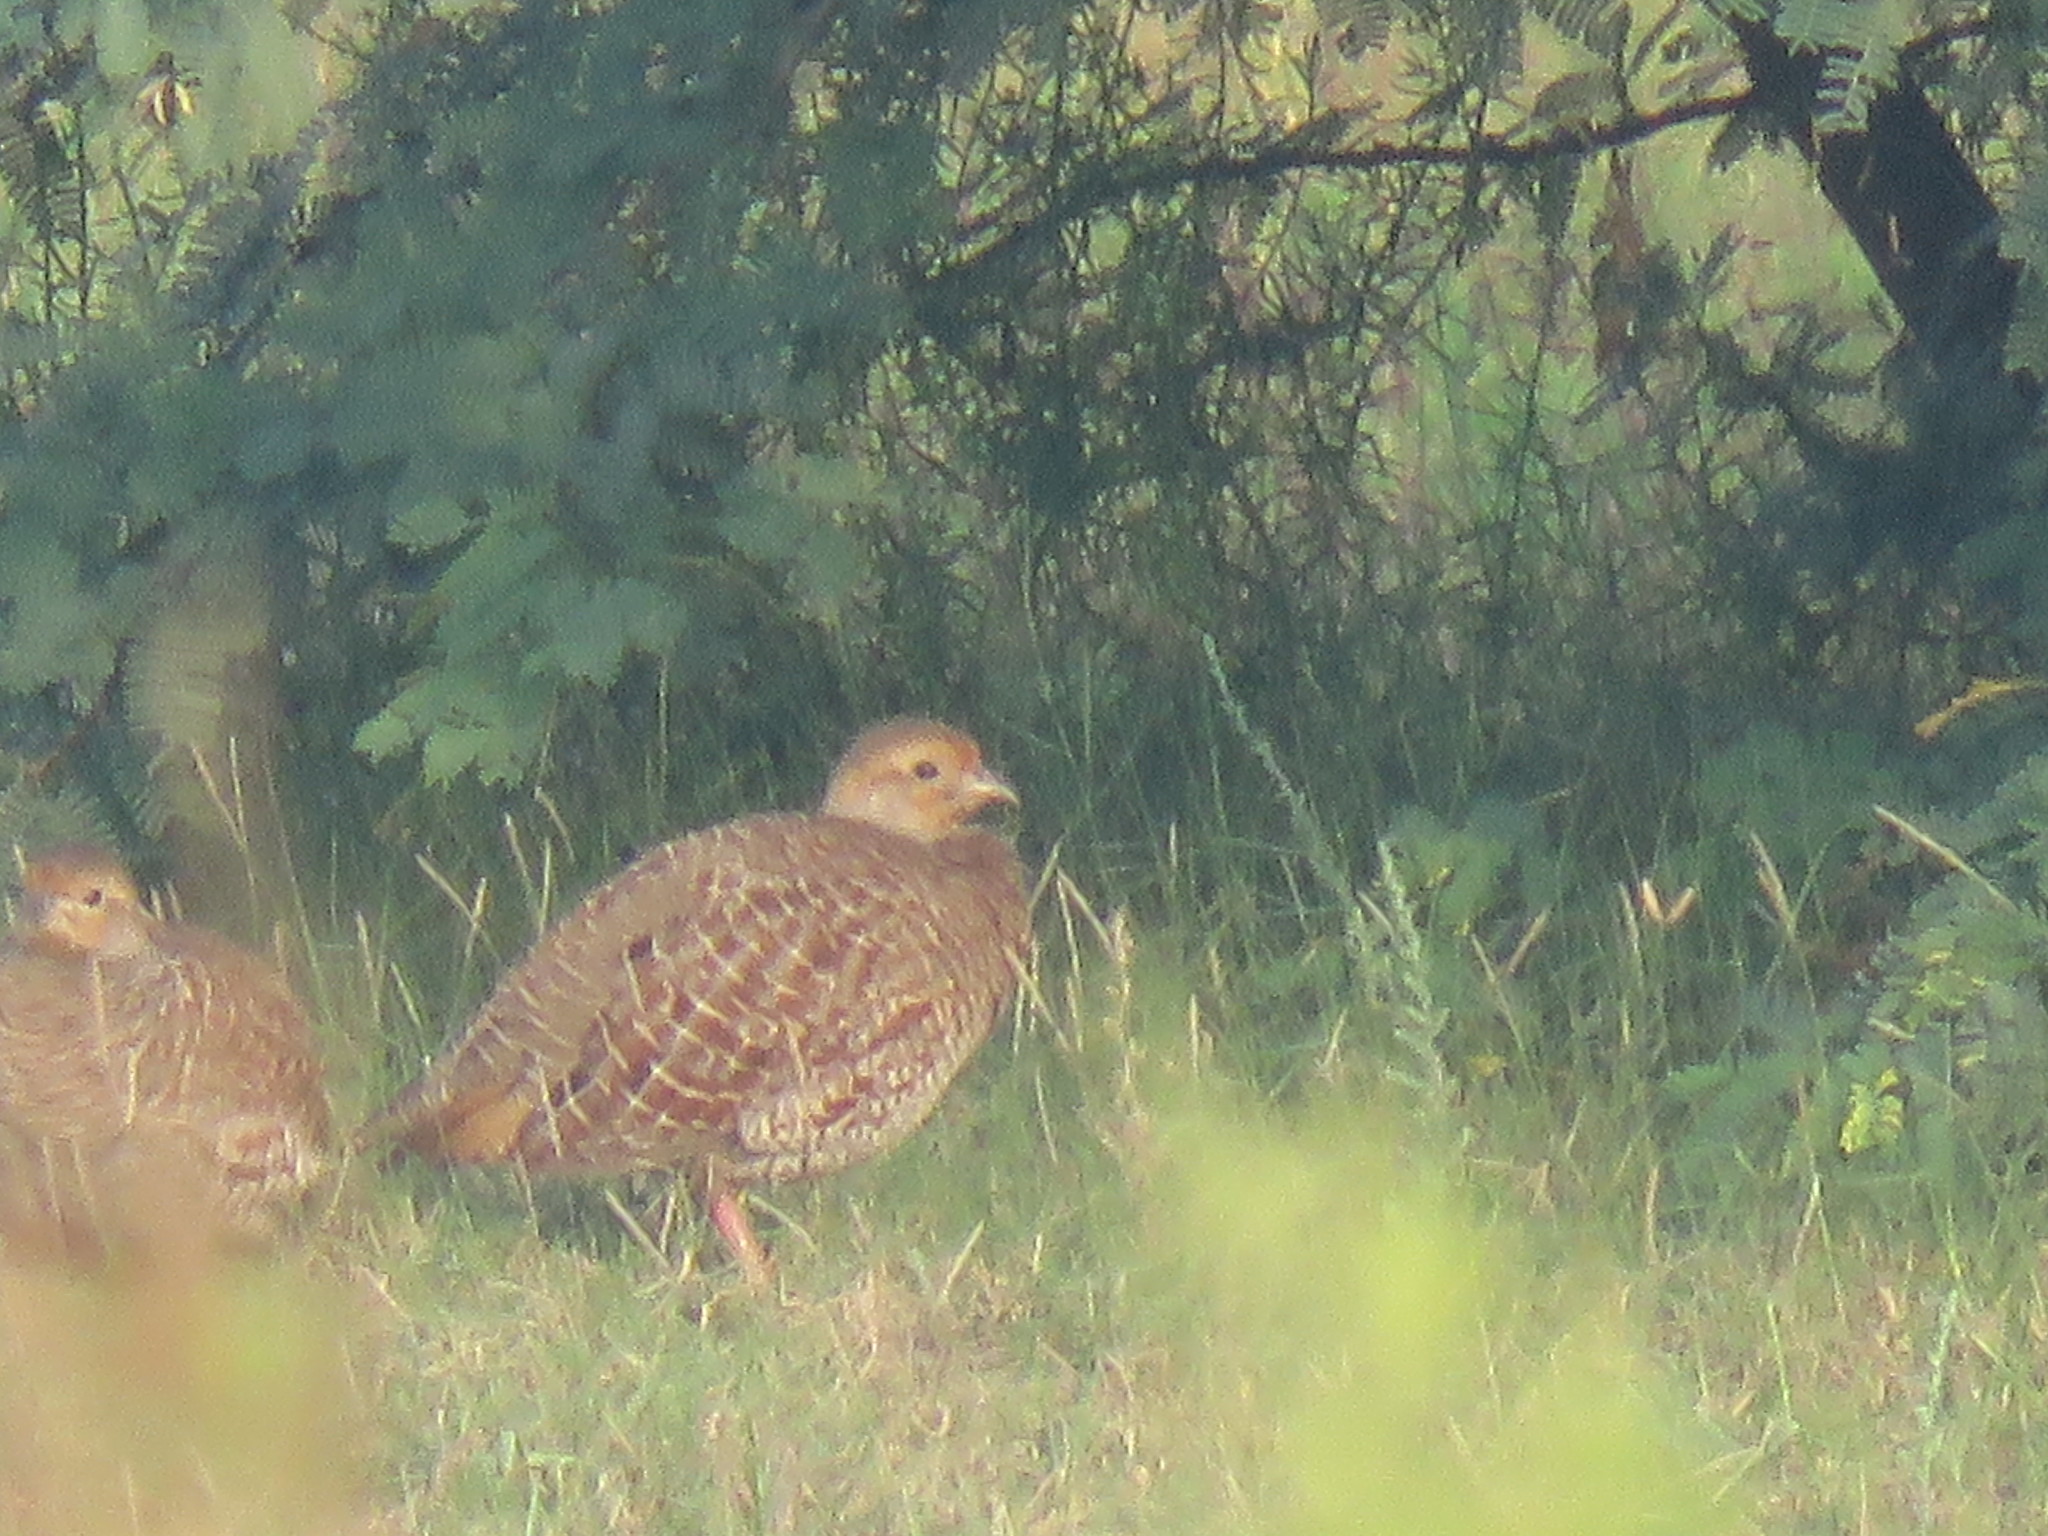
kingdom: Animalia
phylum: Chordata
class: Aves
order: Galliformes
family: Phasianidae
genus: Ortygornis
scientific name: Ortygornis pondicerianus
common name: Grey francolin
